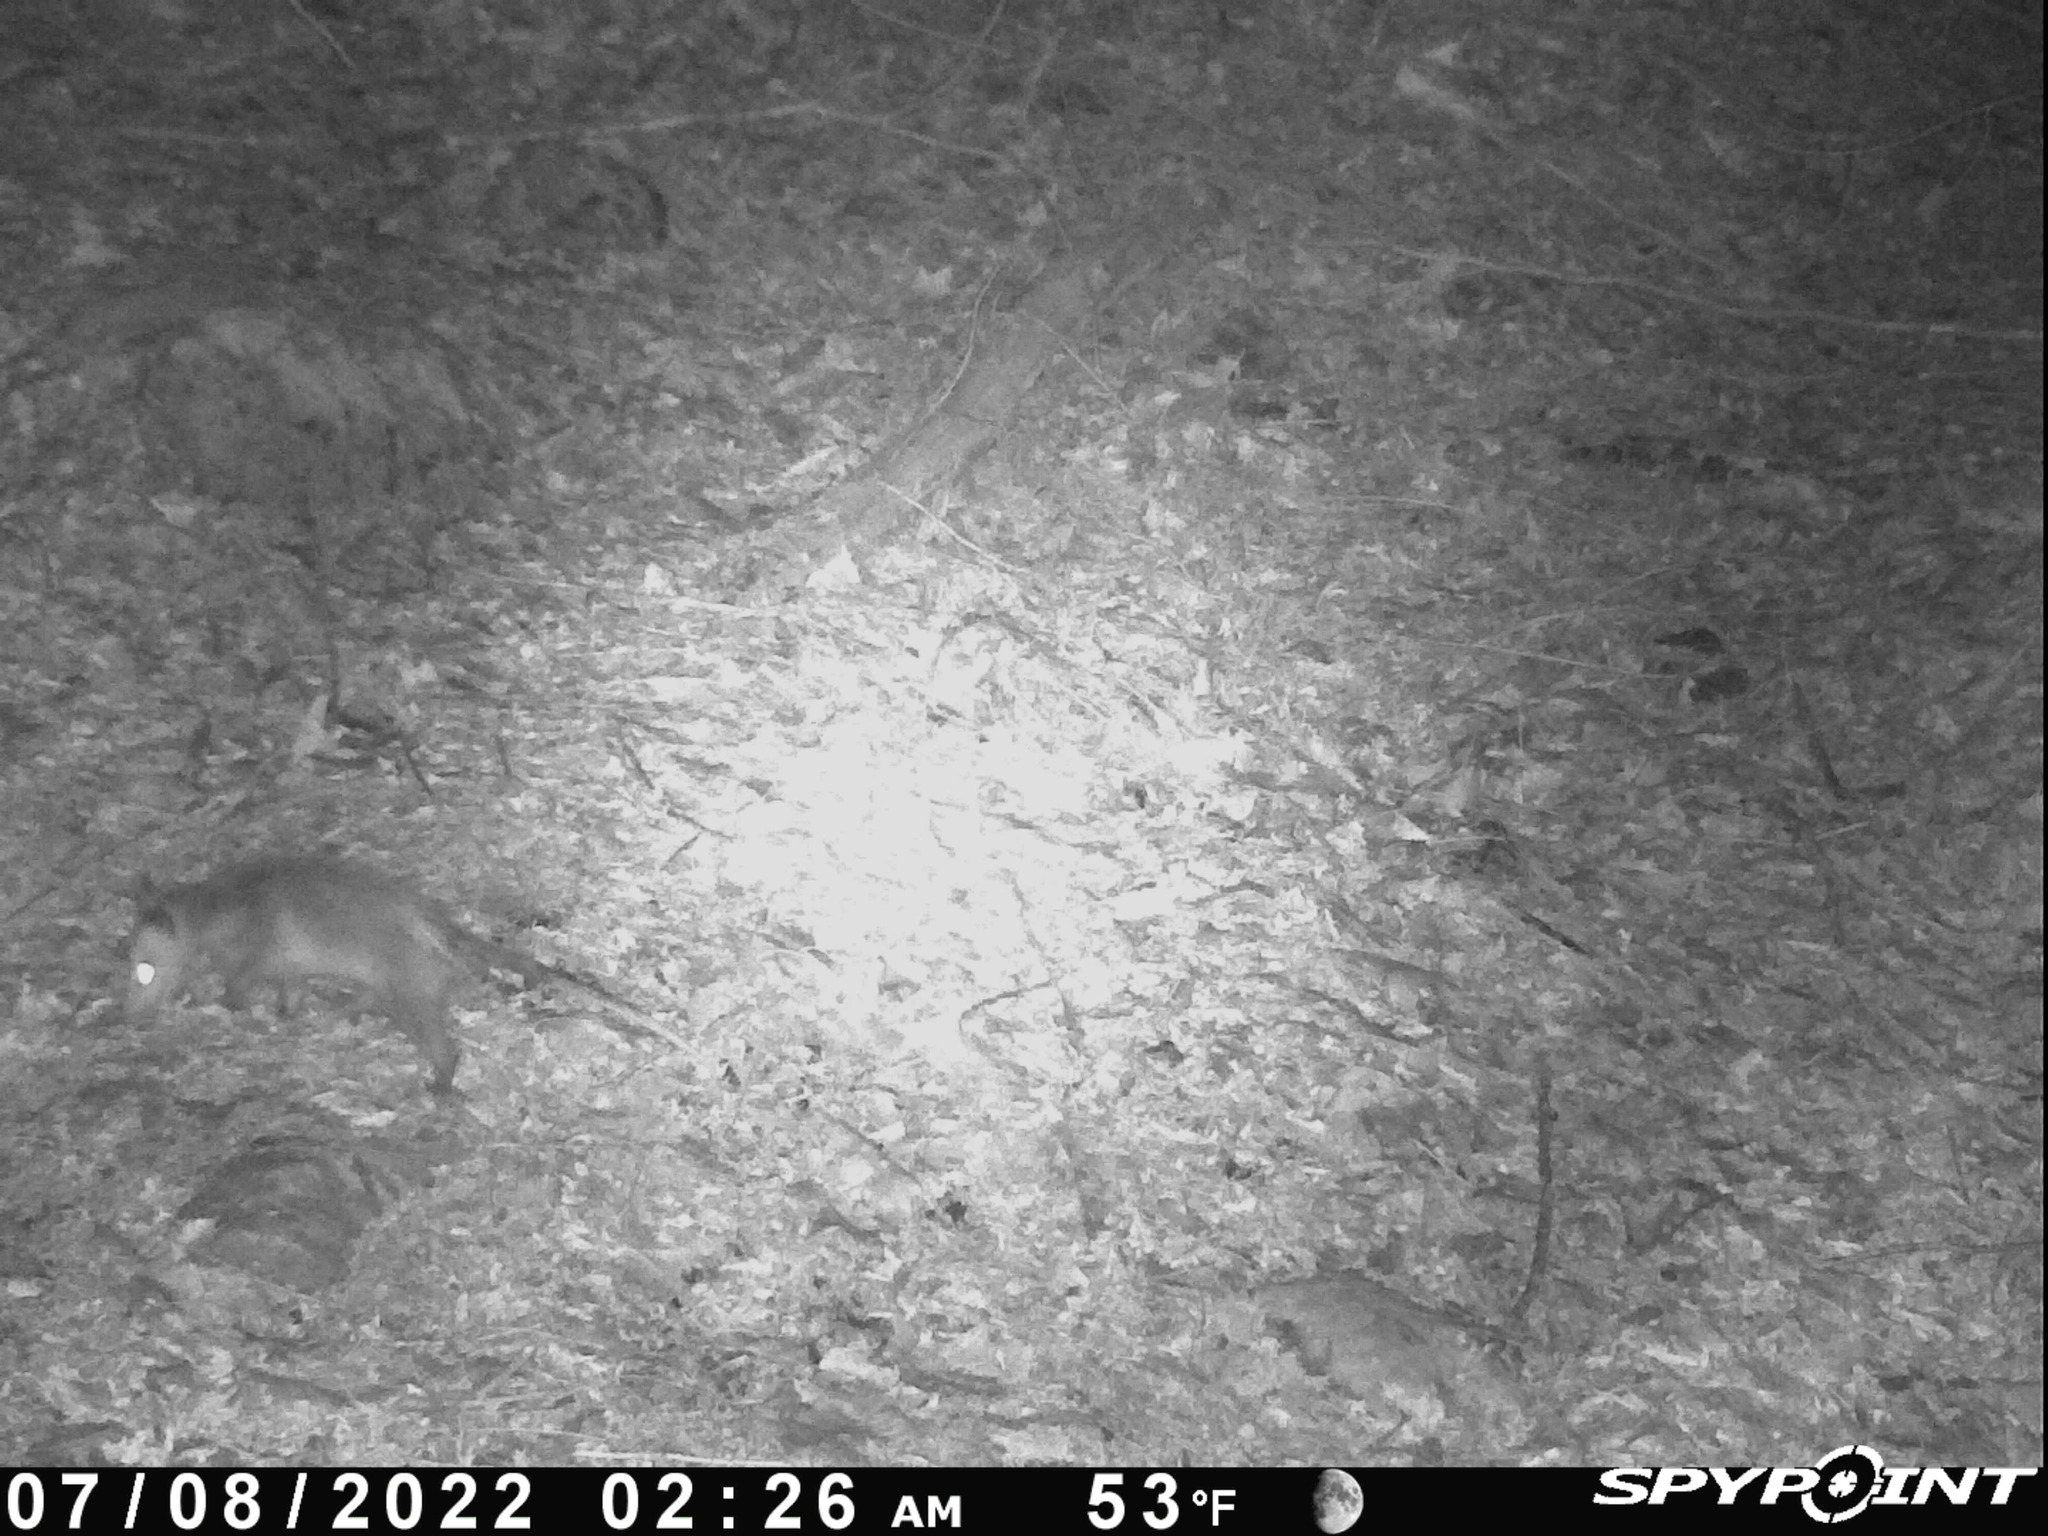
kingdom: Animalia
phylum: Chordata
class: Mammalia
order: Didelphimorphia
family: Didelphidae
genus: Didelphis
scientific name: Didelphis virginiana
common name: Virginia opossum
